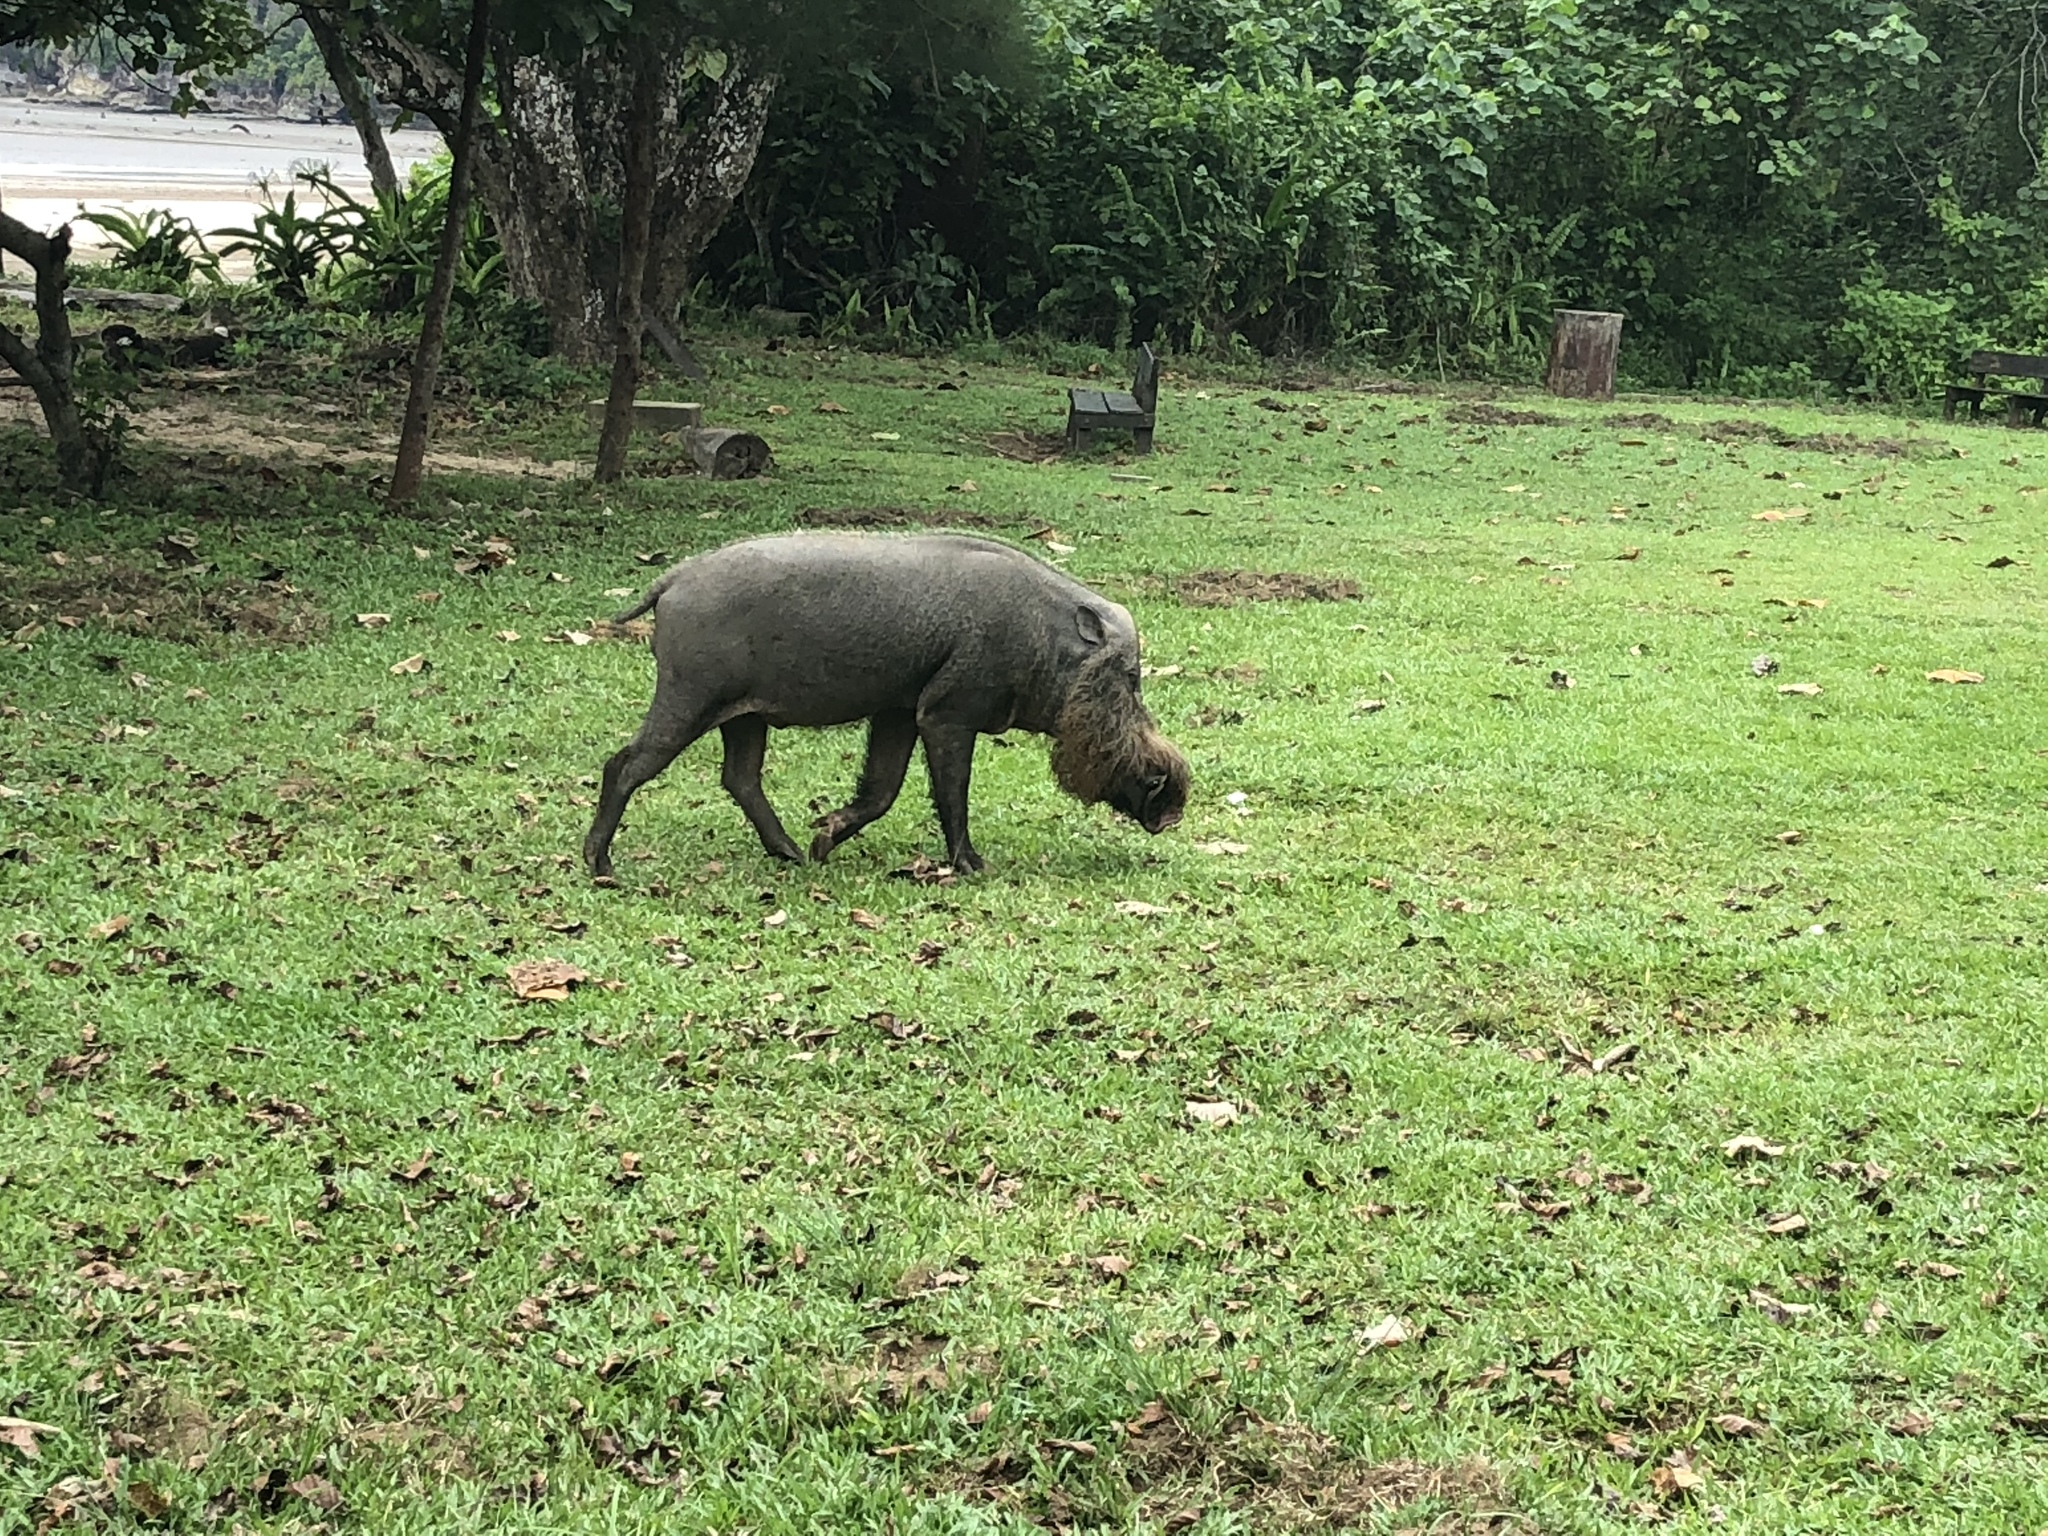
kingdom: Animalia
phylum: Chordata
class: Mammalia
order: Artiodactyla
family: Suidae
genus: Sus
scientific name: Sus barbatus
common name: Bearded pig
